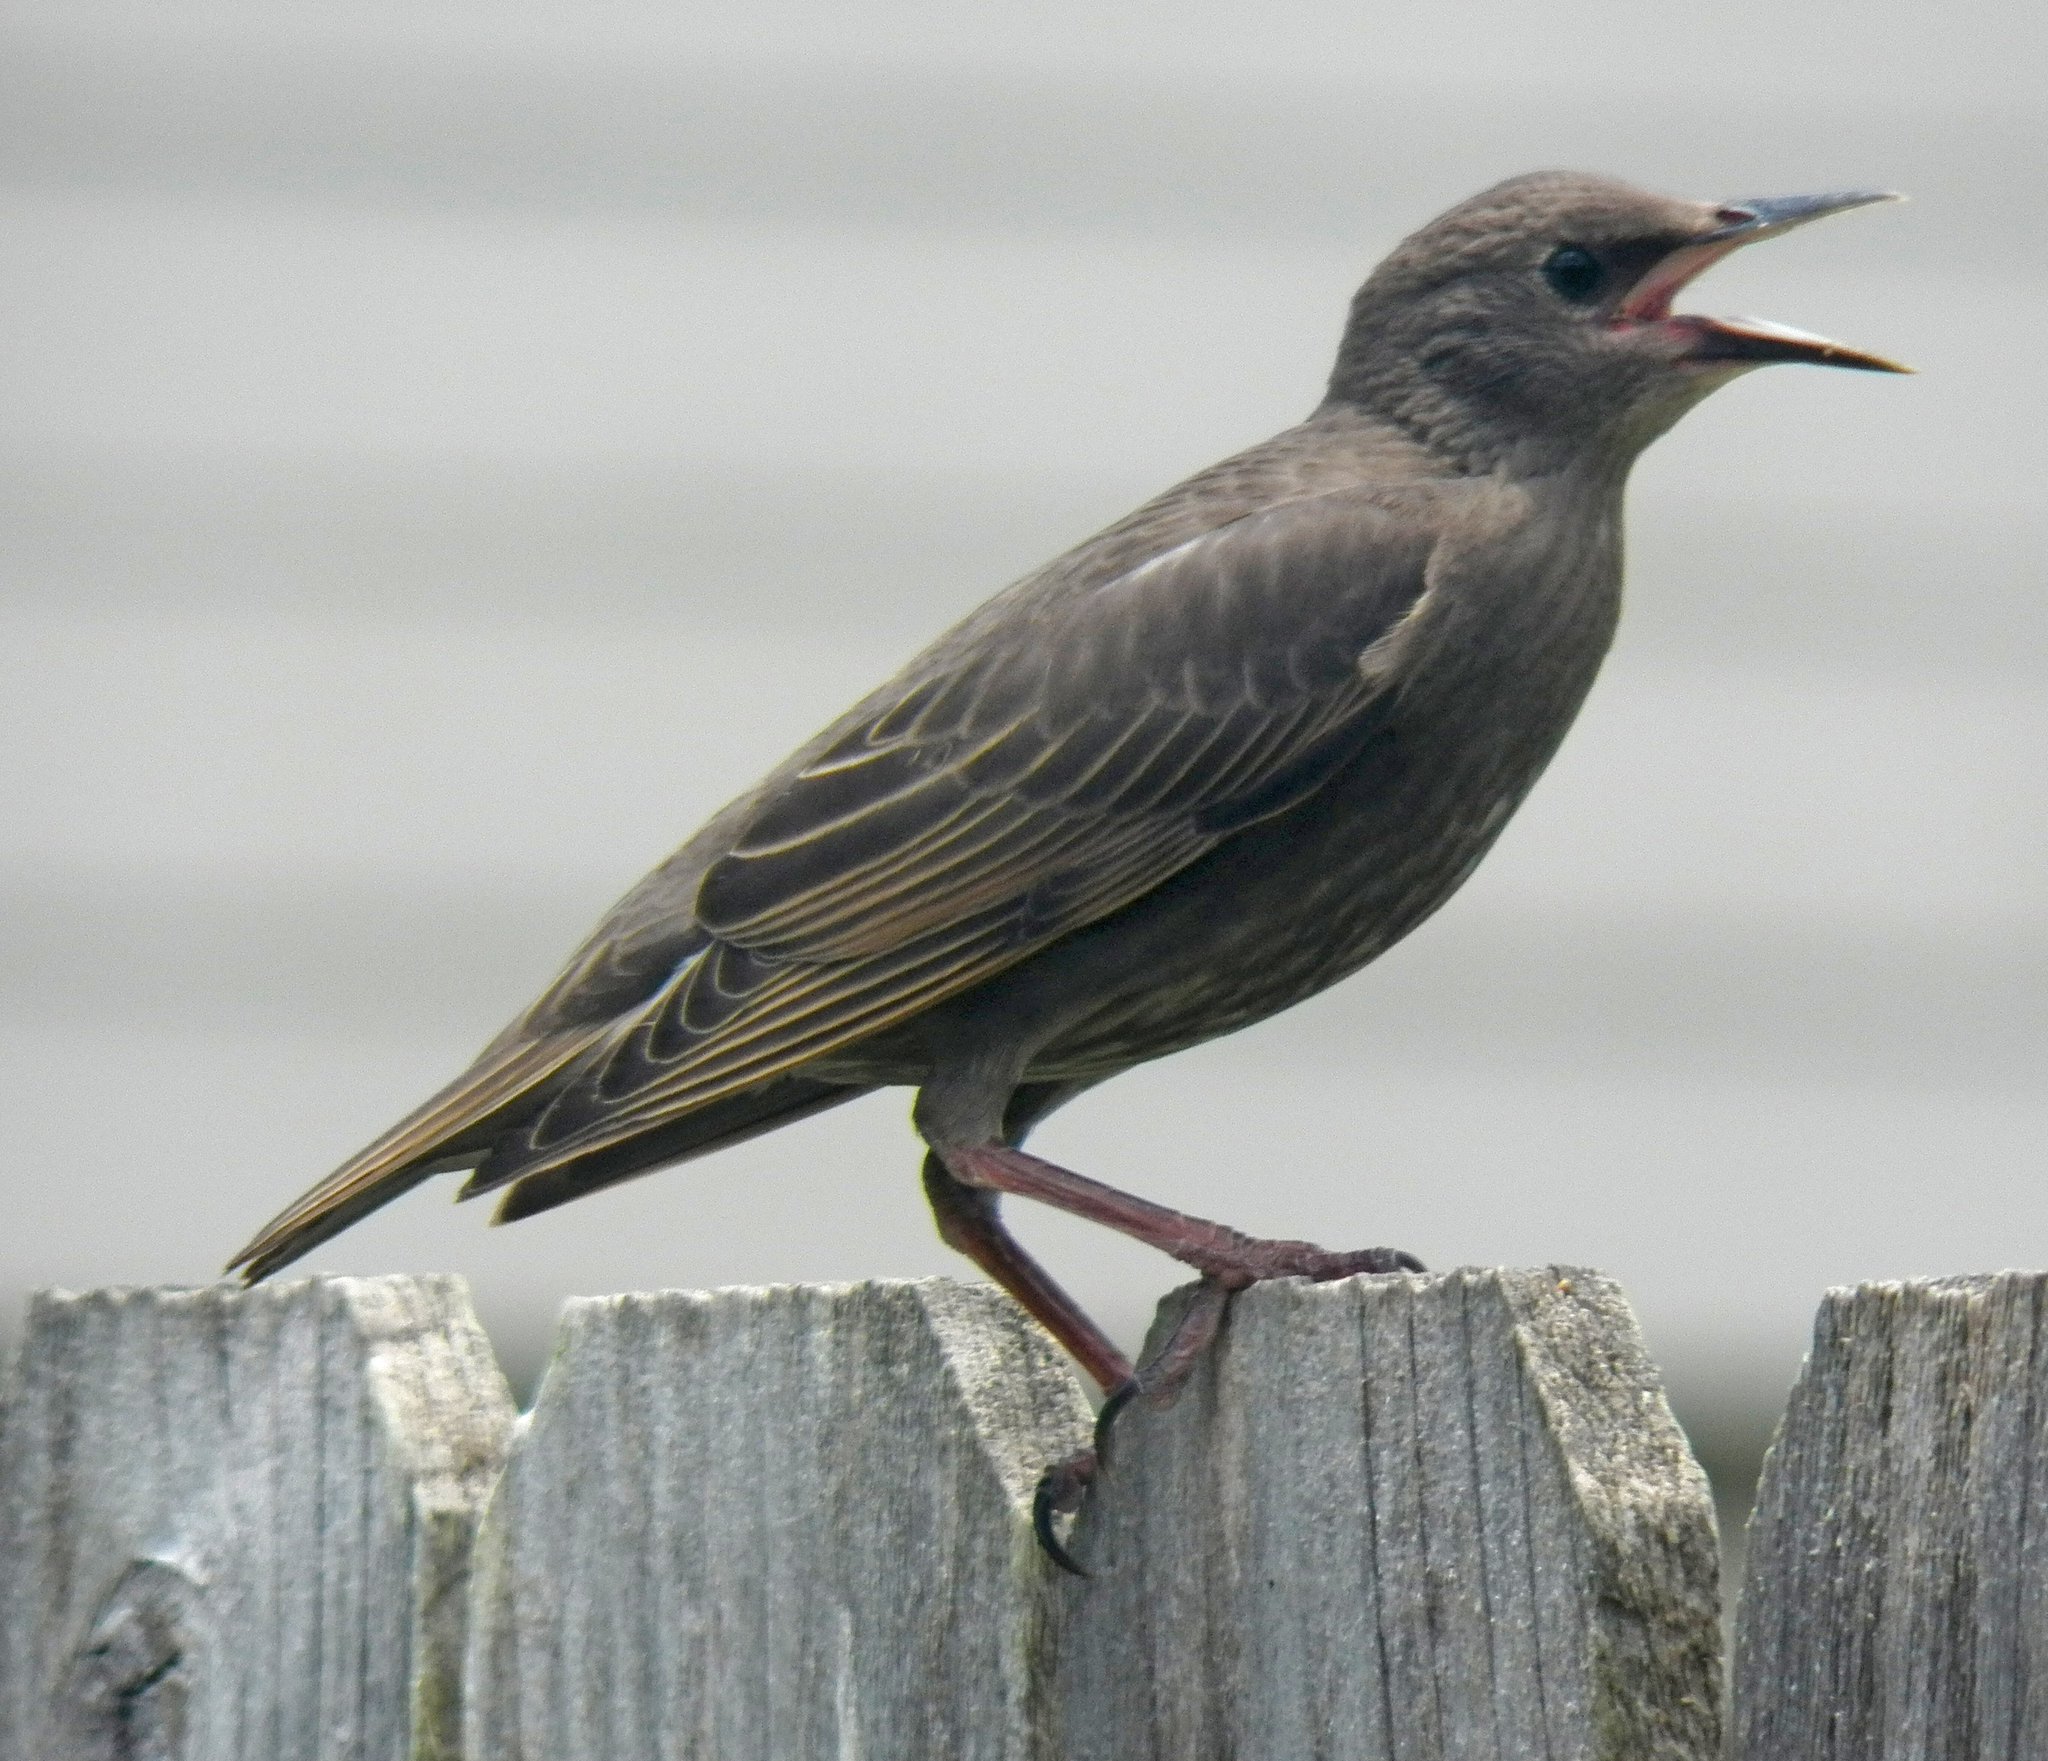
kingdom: Animalia
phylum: Chordata
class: Aves
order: Passeriformes
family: Sturnidae
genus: Sturnus
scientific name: Sturnus vulgaris
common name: Common starling
